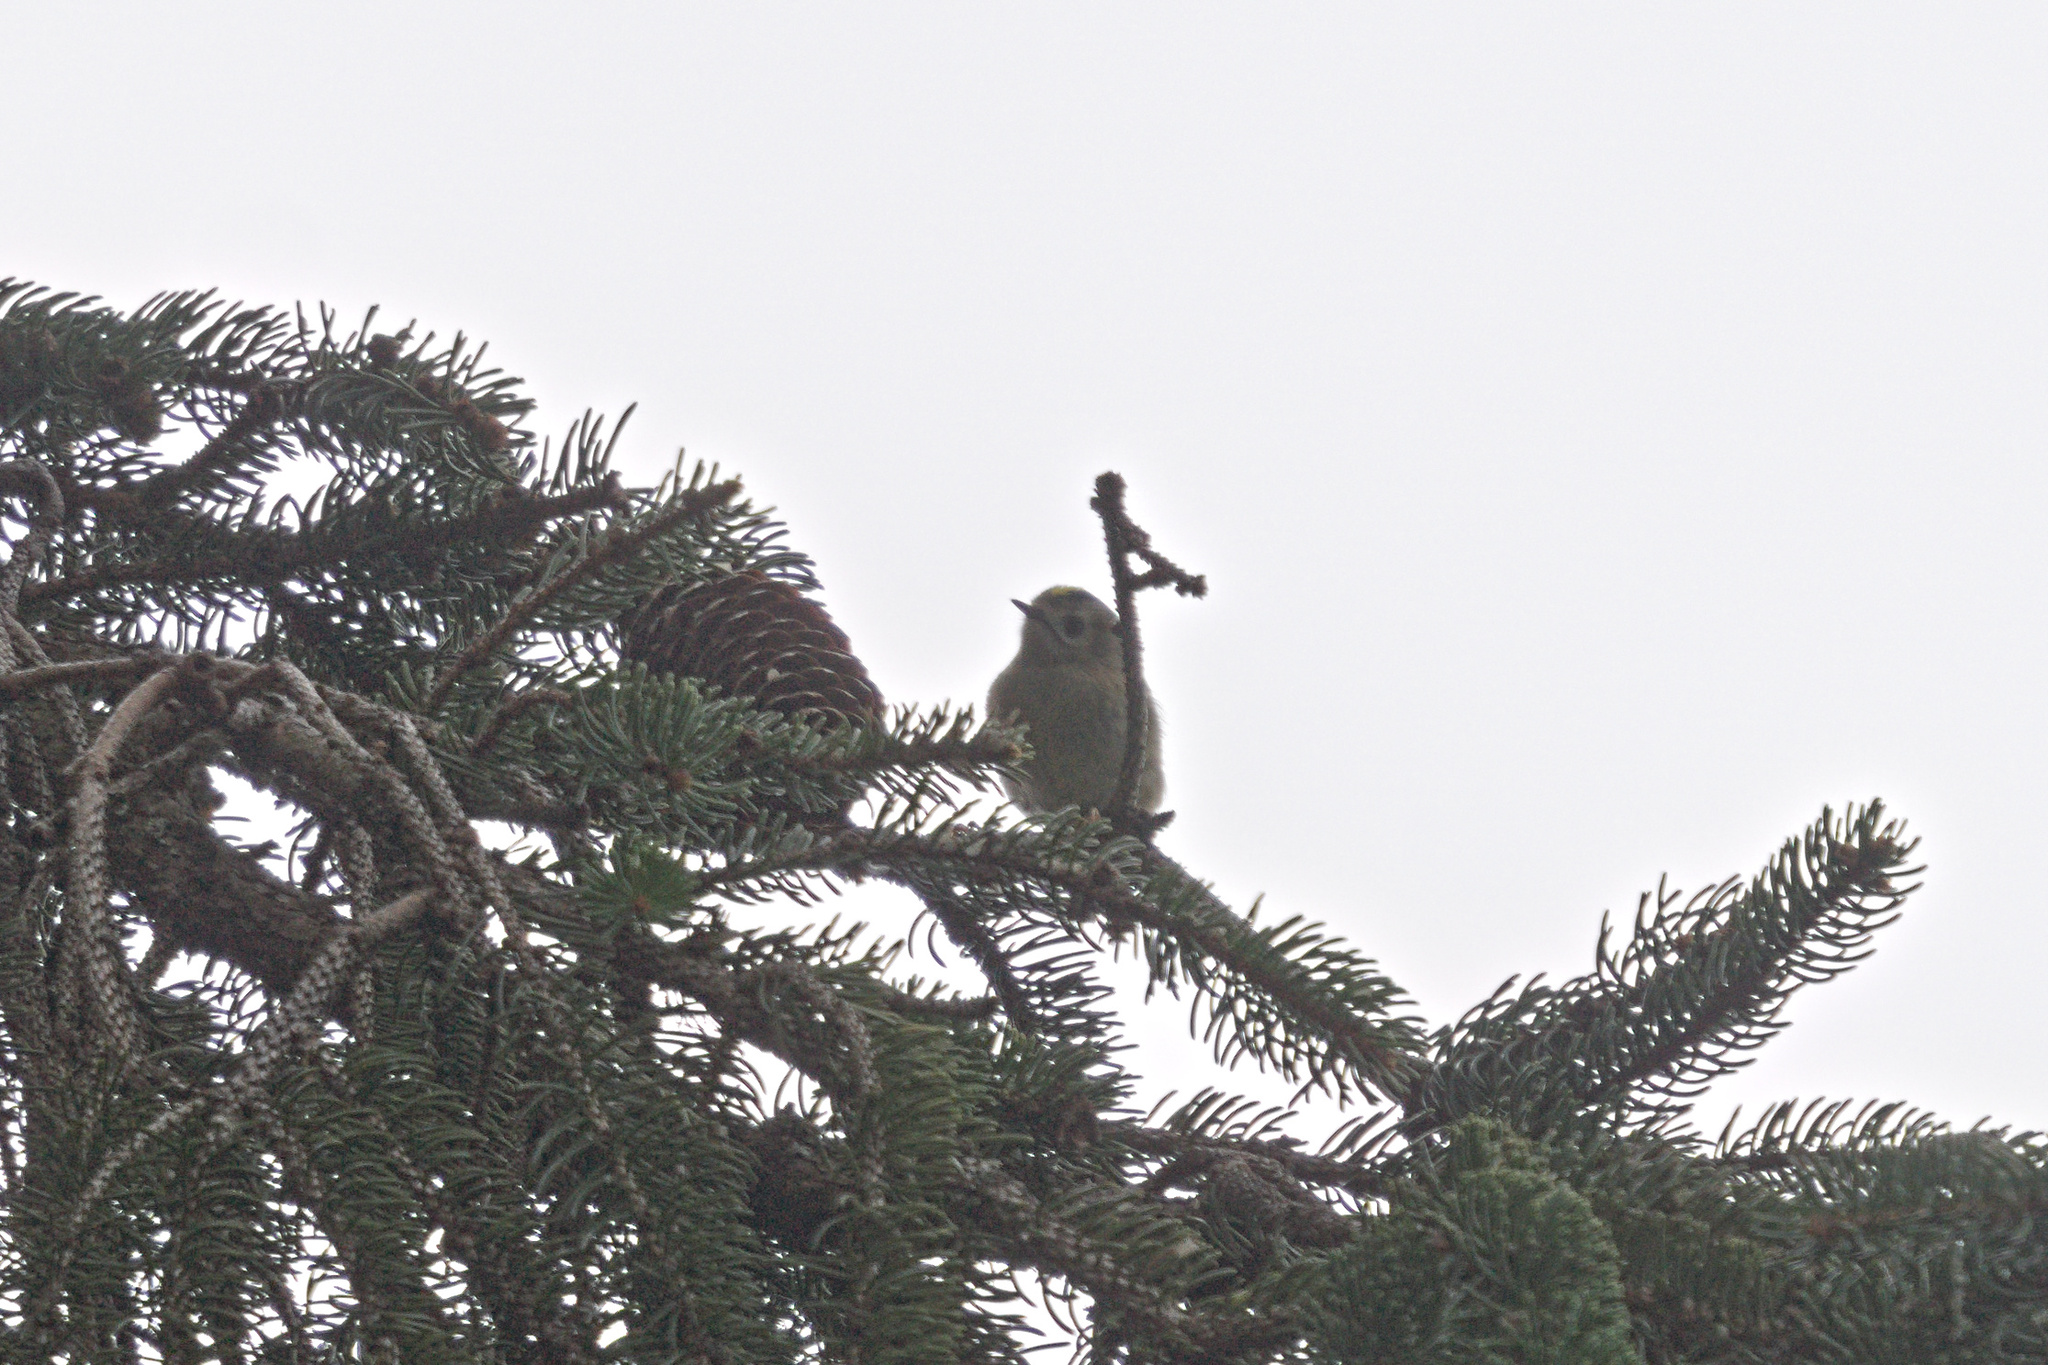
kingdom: Animalia
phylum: Chordata
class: Aves
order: Passeriformes
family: Regulidae
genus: Regulus
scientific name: Regulus regulus
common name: Goldcrest
